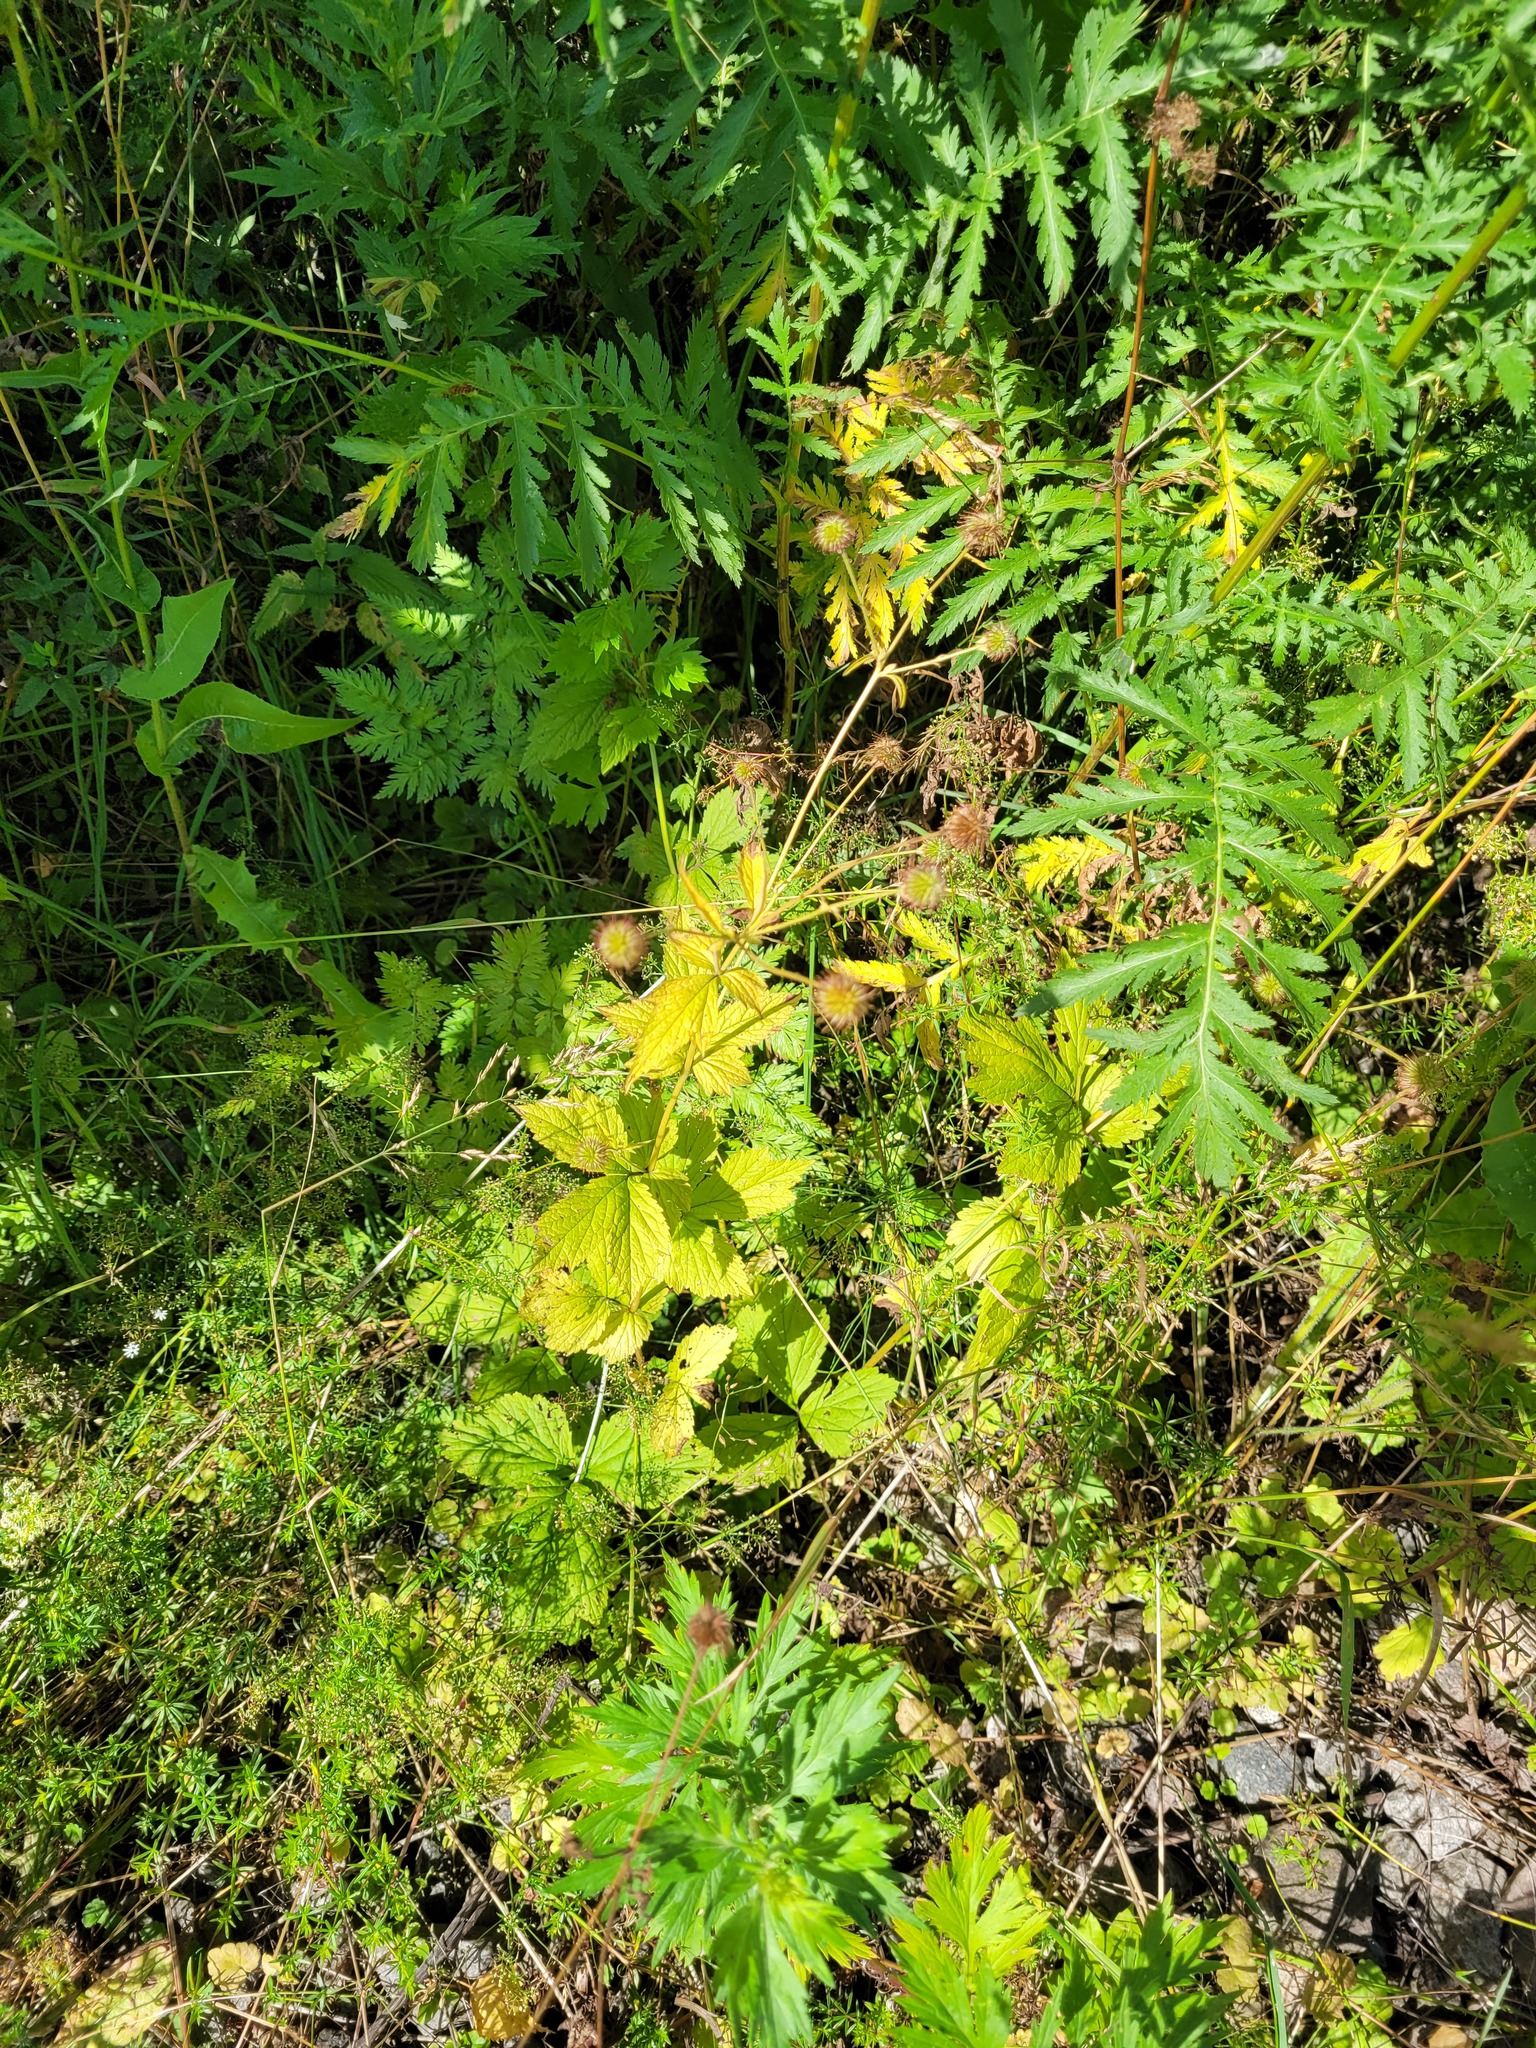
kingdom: Plantae
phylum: Tracheophyta
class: Magnoliopsida
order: Rosales
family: Rosaceae
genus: Geum
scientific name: Geum urbanum
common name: Wood avens
